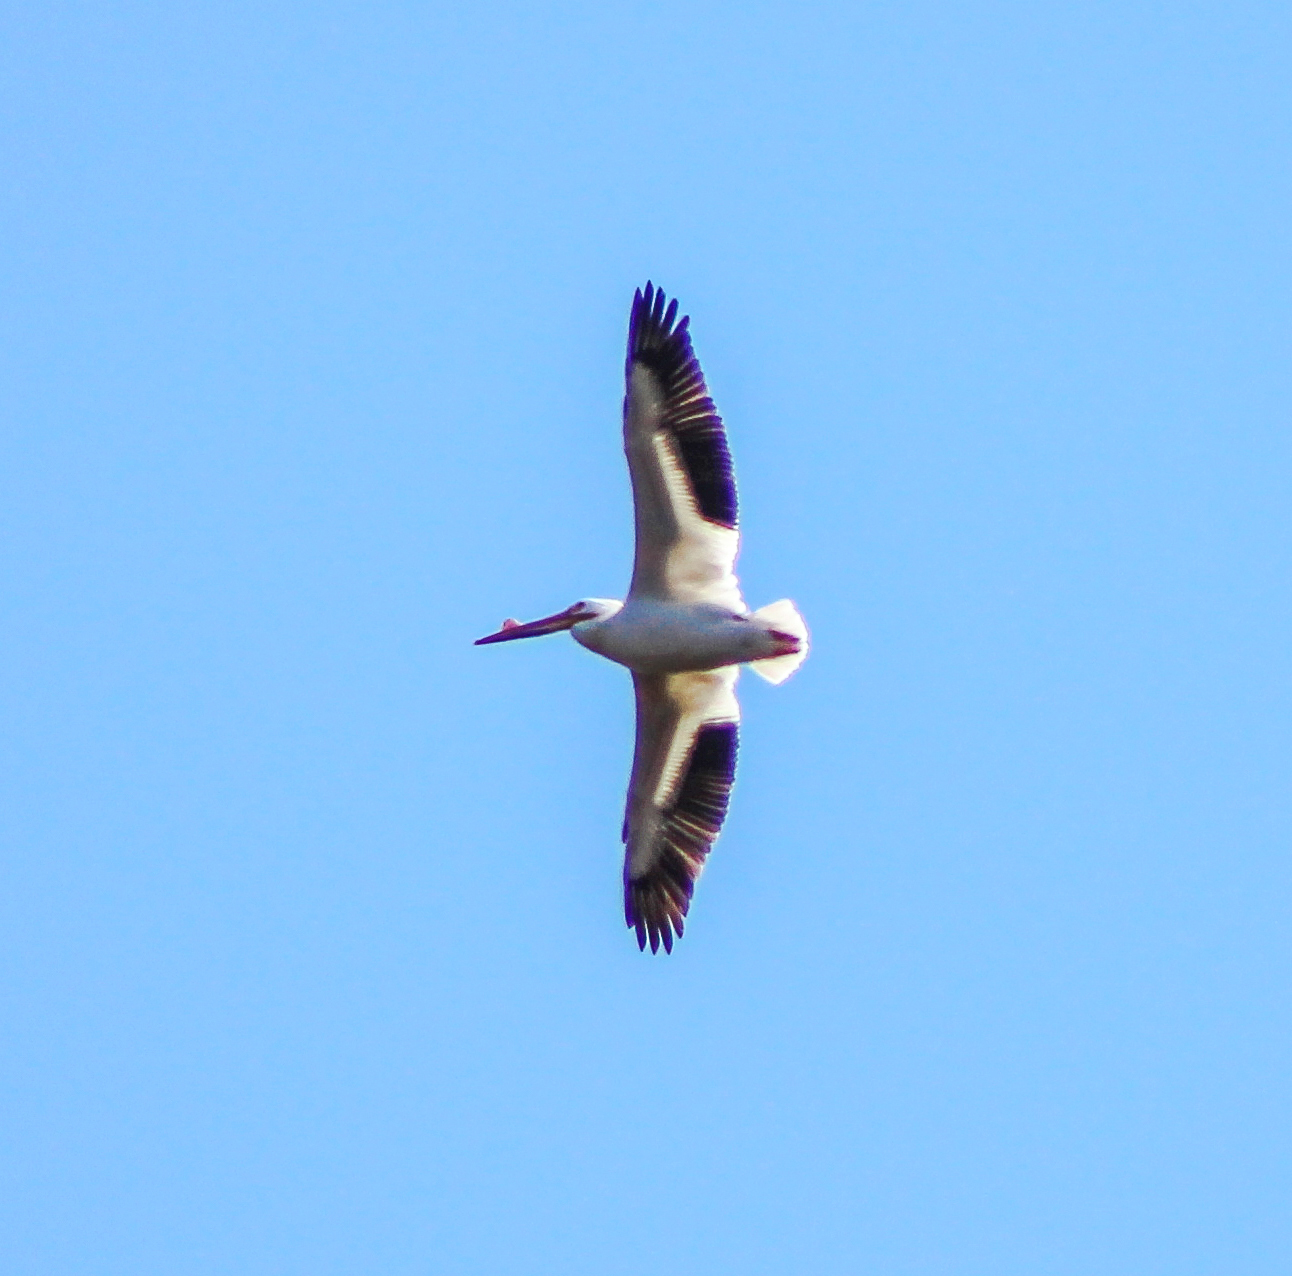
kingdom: Animalia
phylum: Chordata
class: Aves
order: Pelecaniformes
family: Pelecanidae
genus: Pelecanus
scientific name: Pelecanus erythrorhynchos
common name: American white pelican
